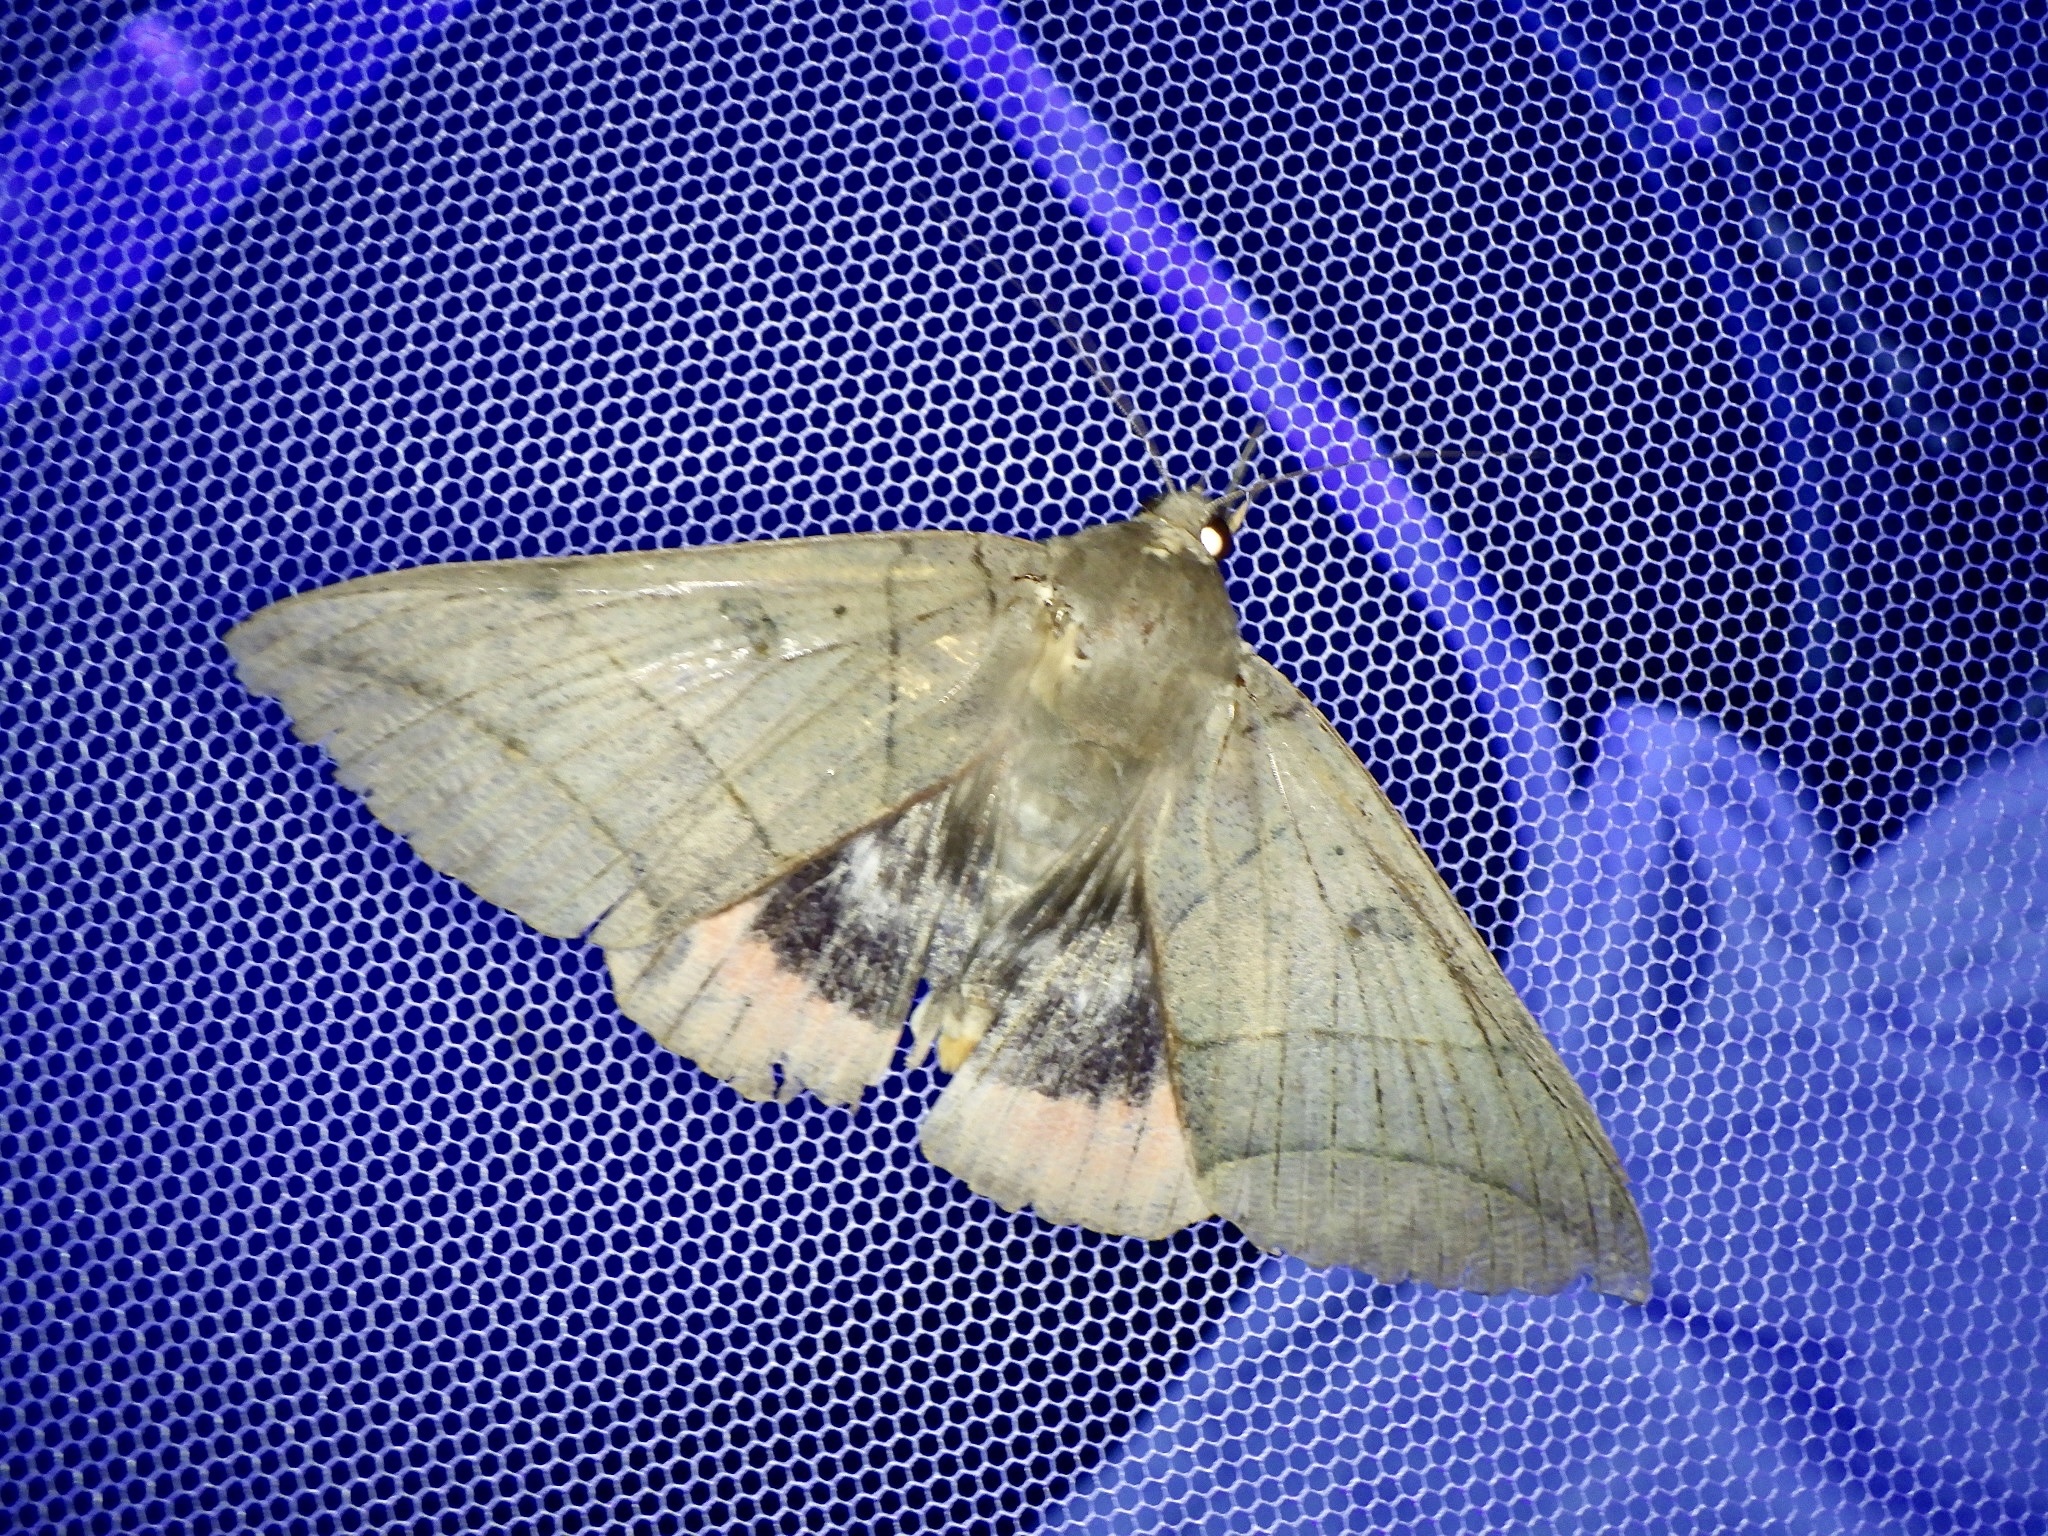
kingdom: Animalia
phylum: Arthropoda
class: Insecta
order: Lepidoptera
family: Erebidae
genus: Thyas
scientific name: Thyas juno
